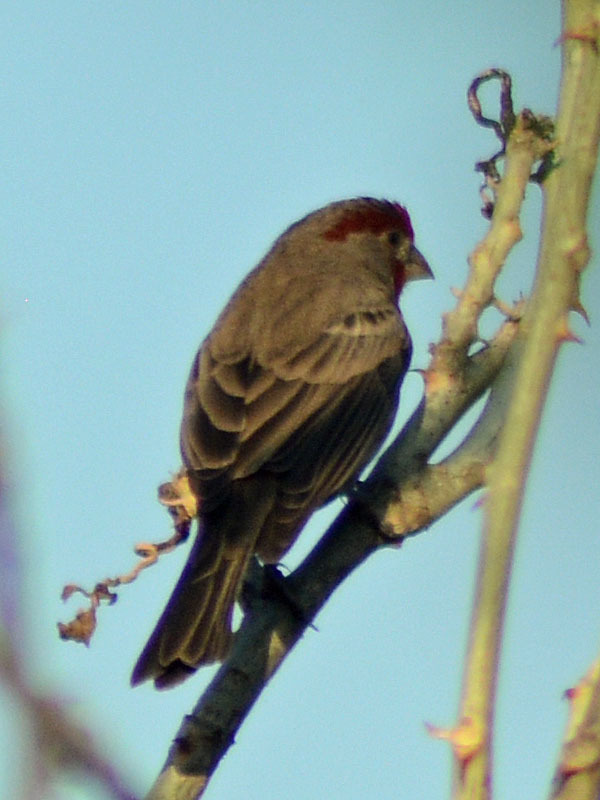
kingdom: Animalia
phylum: Chordata
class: Aves
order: Passeriformes
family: Fringillidae
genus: Haemorhous
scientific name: Haemorhous mexicanus
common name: House finch
